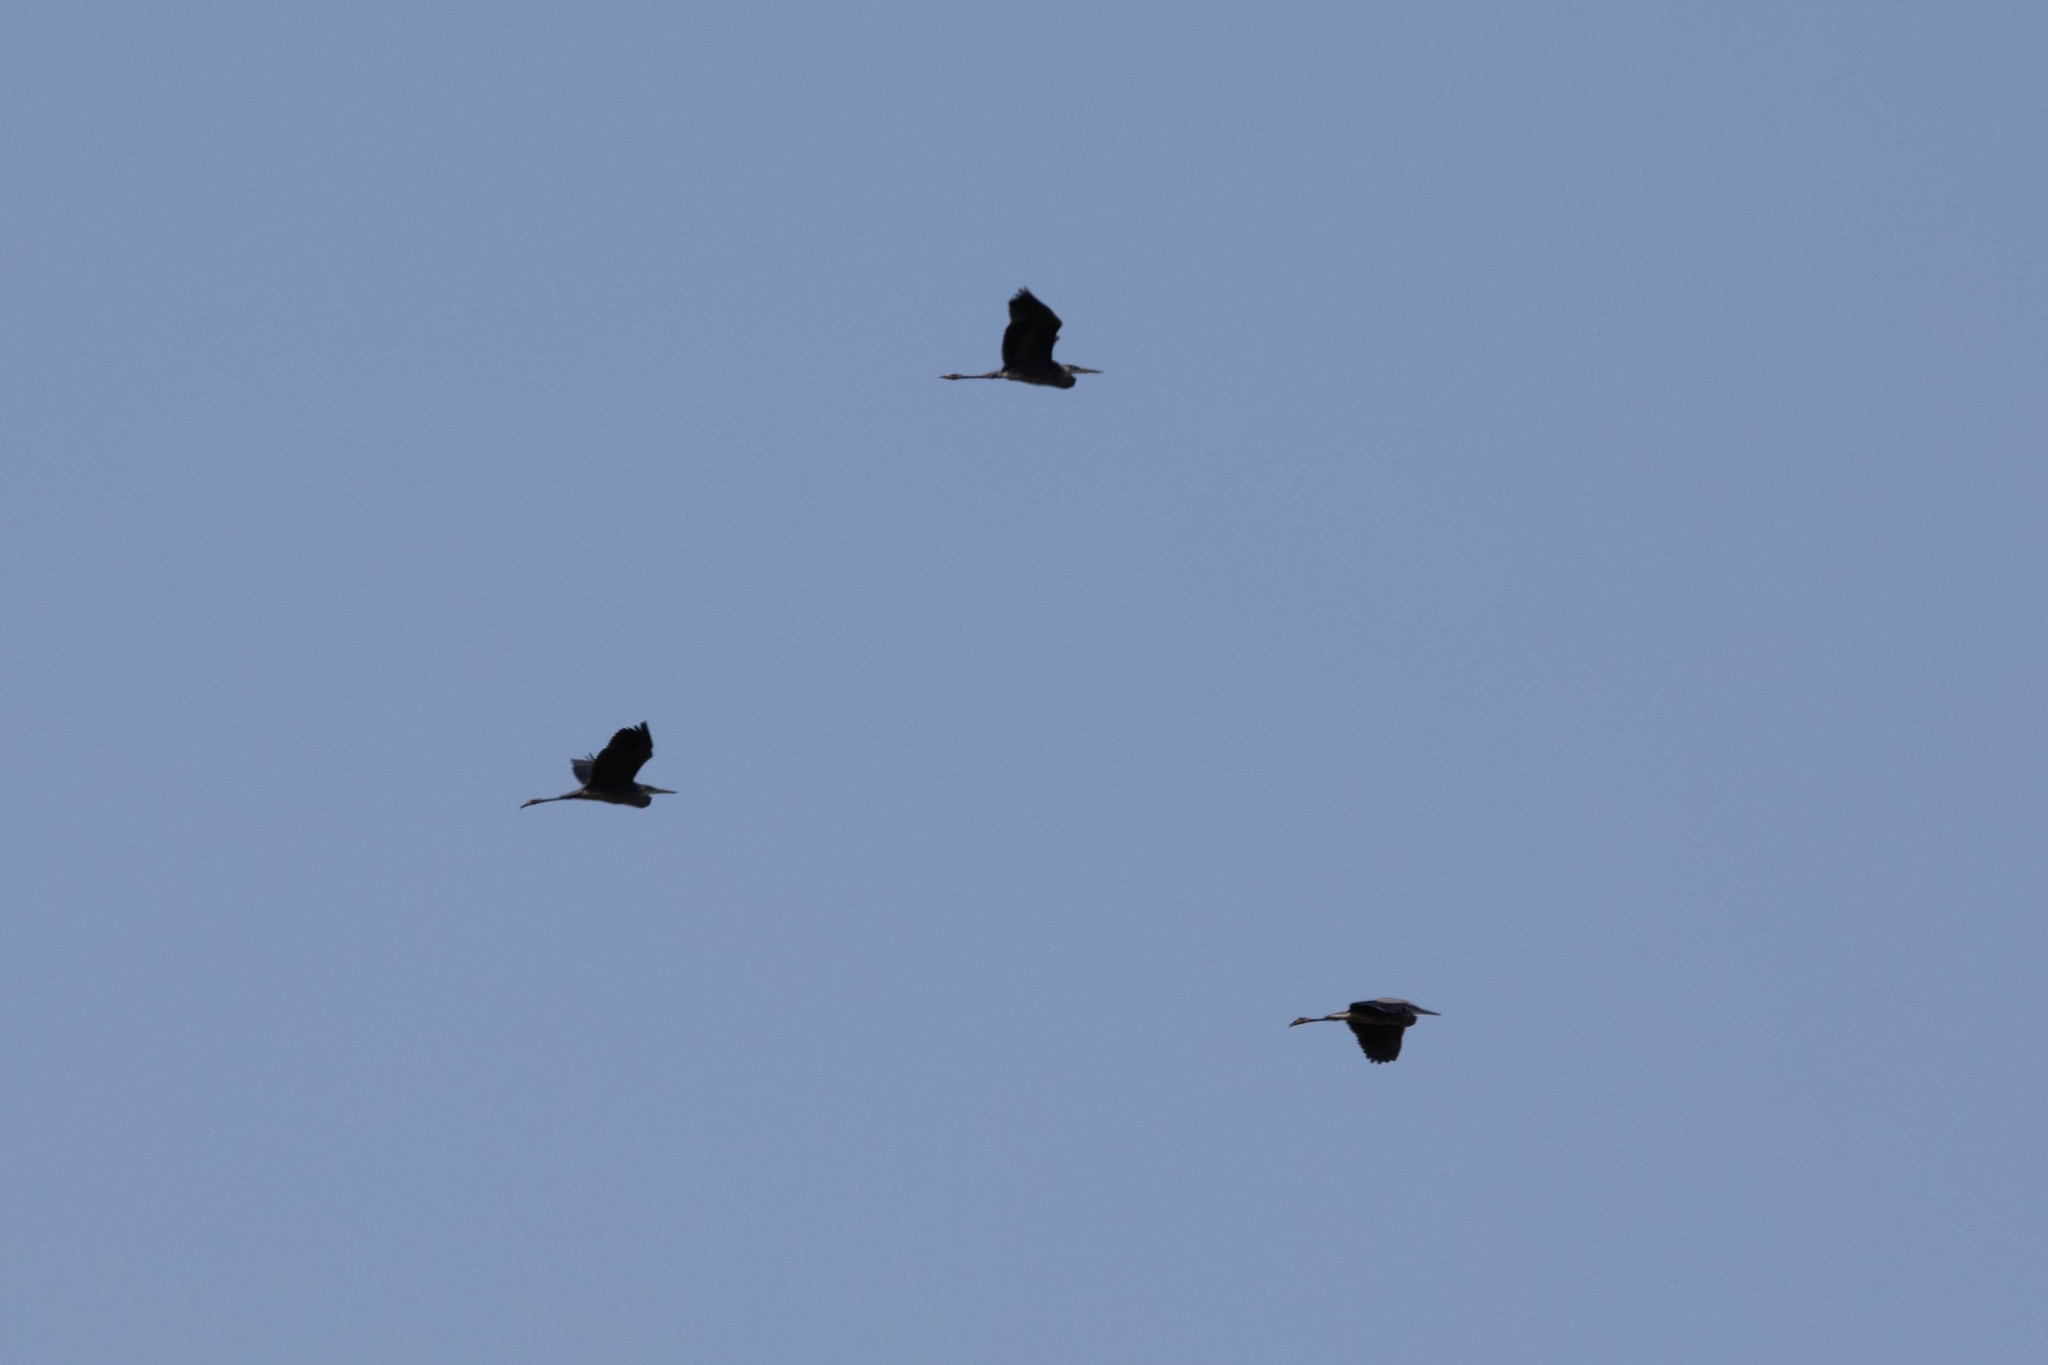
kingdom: Animalia
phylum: Chordata
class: Aves
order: Pelecaniformes
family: Ardeidae
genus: Ardea
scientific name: Ardea herodias
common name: Great blue heron
